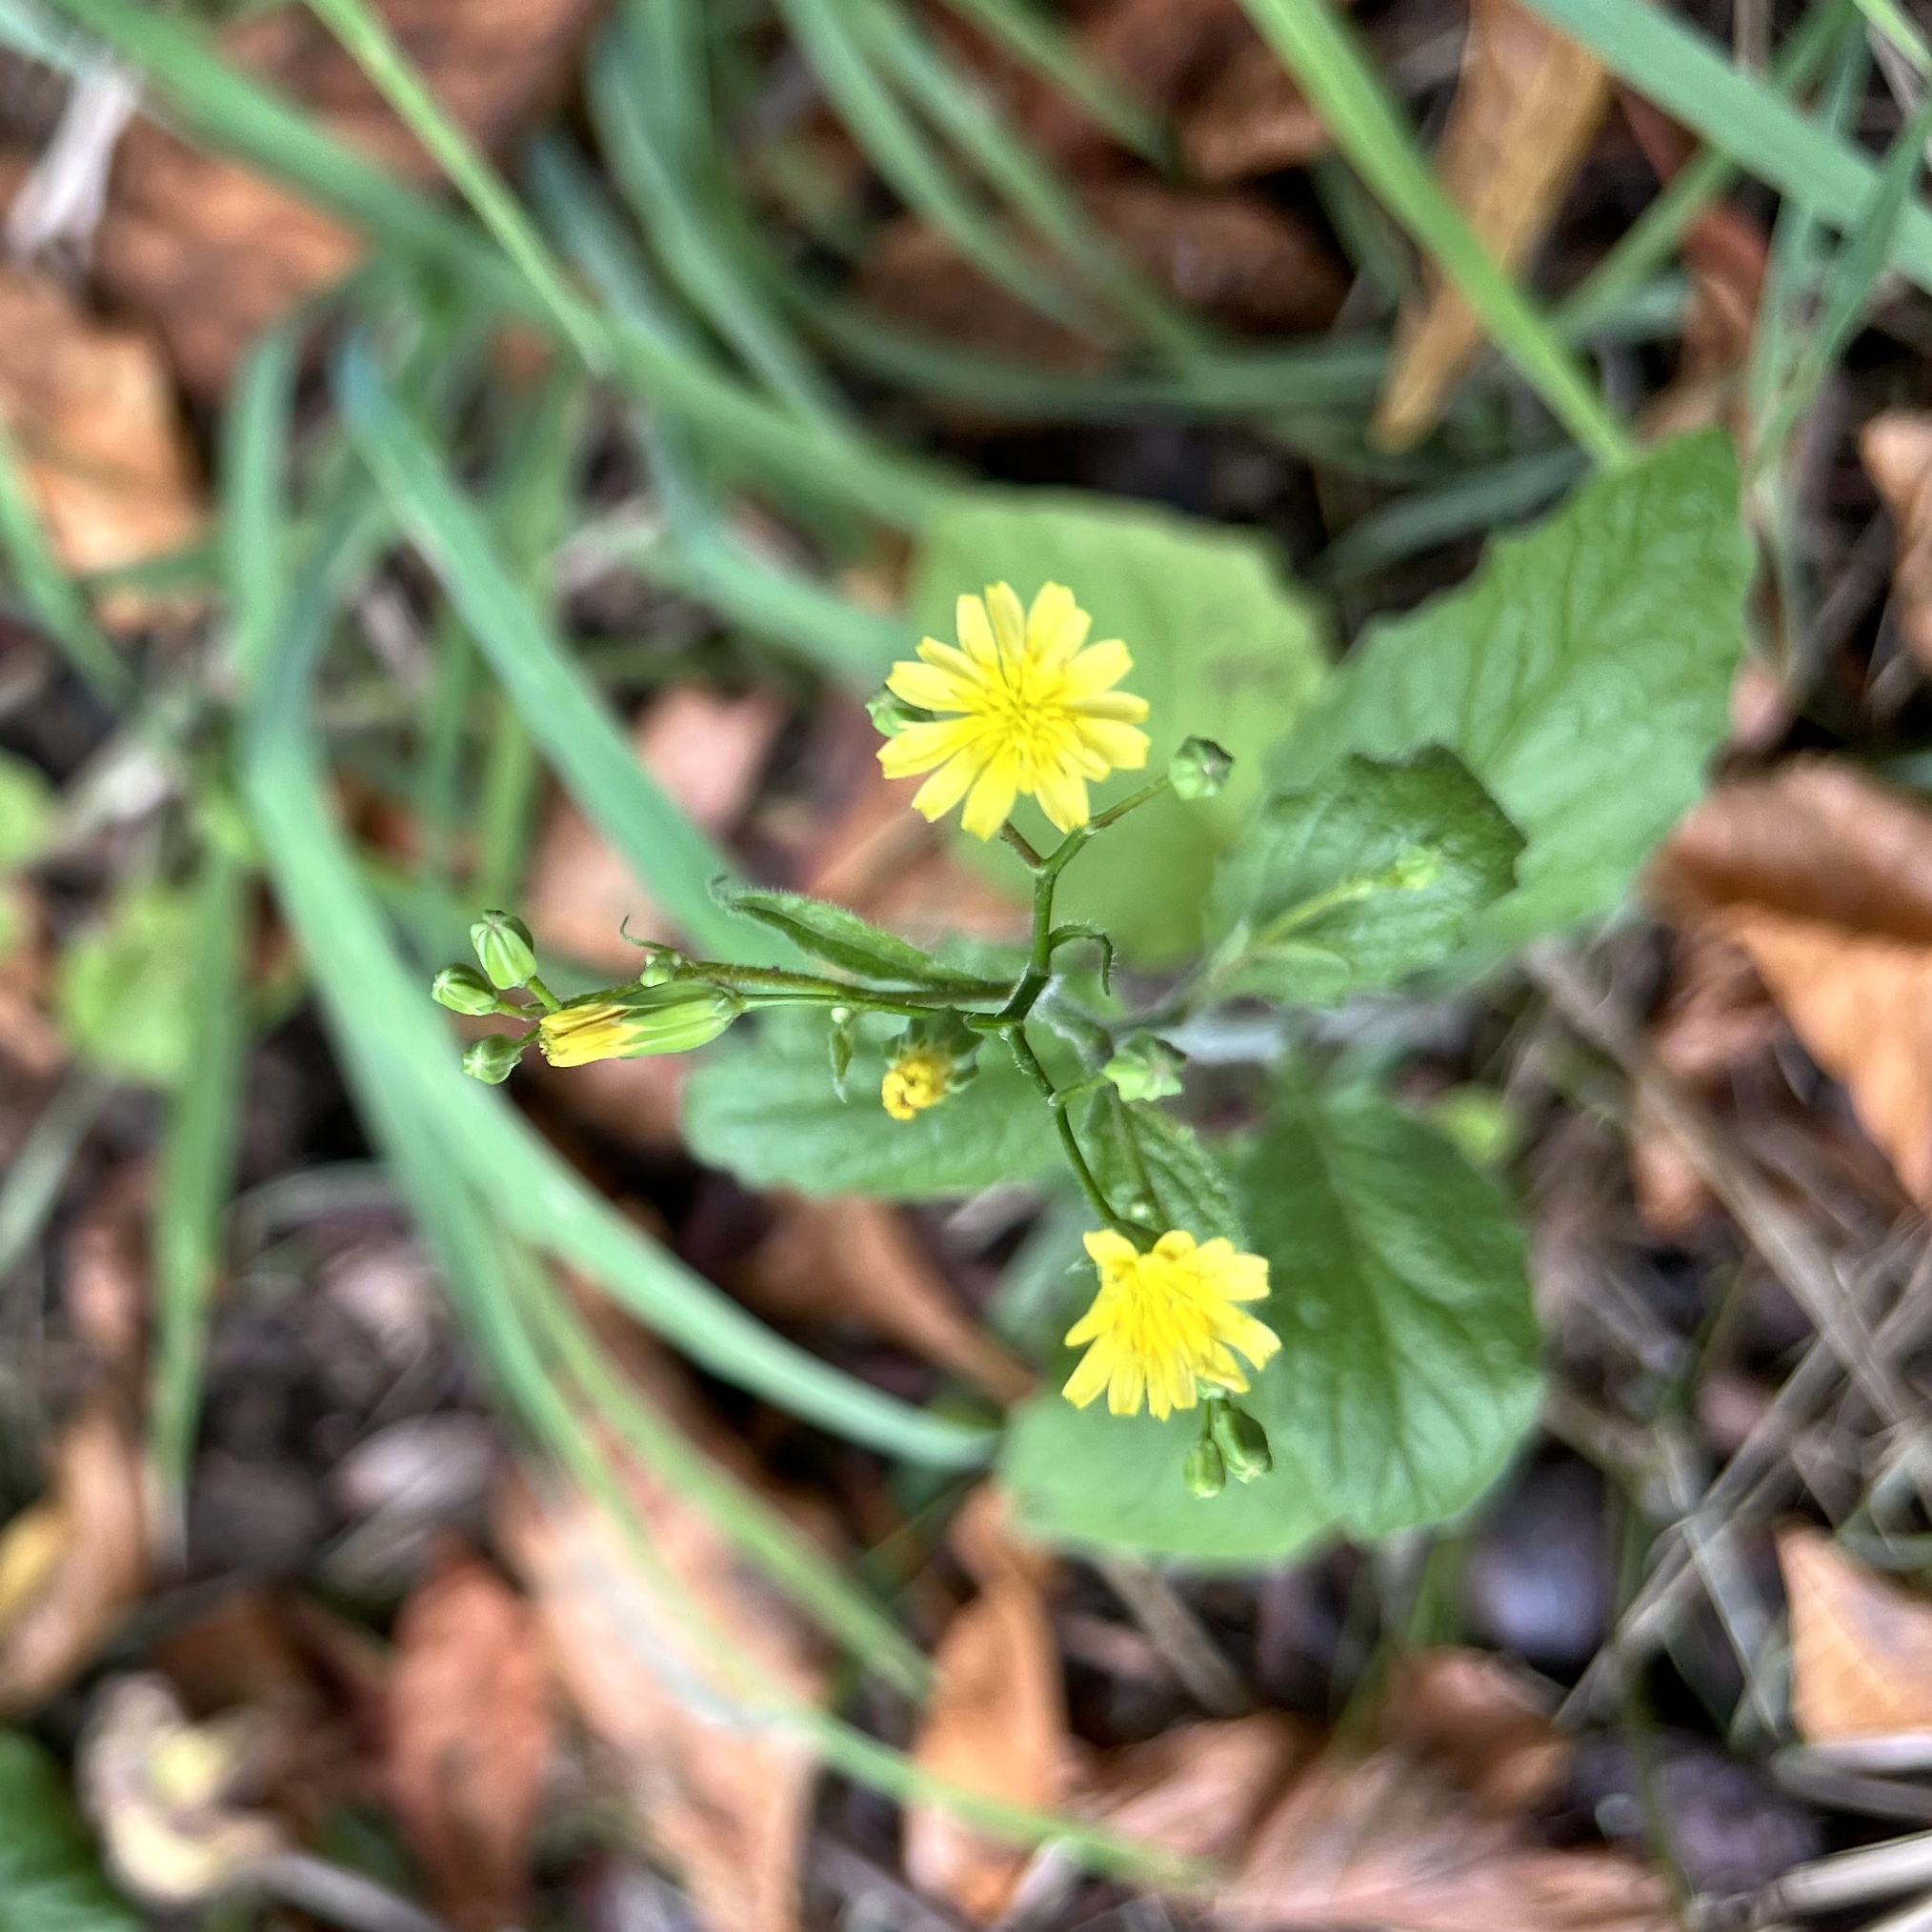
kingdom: Plantae
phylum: Tracheophyta
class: Magnoliopsida
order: Asterales
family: Asteraceae
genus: Lapsana
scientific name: Lapsana communis
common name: Nipplewort
